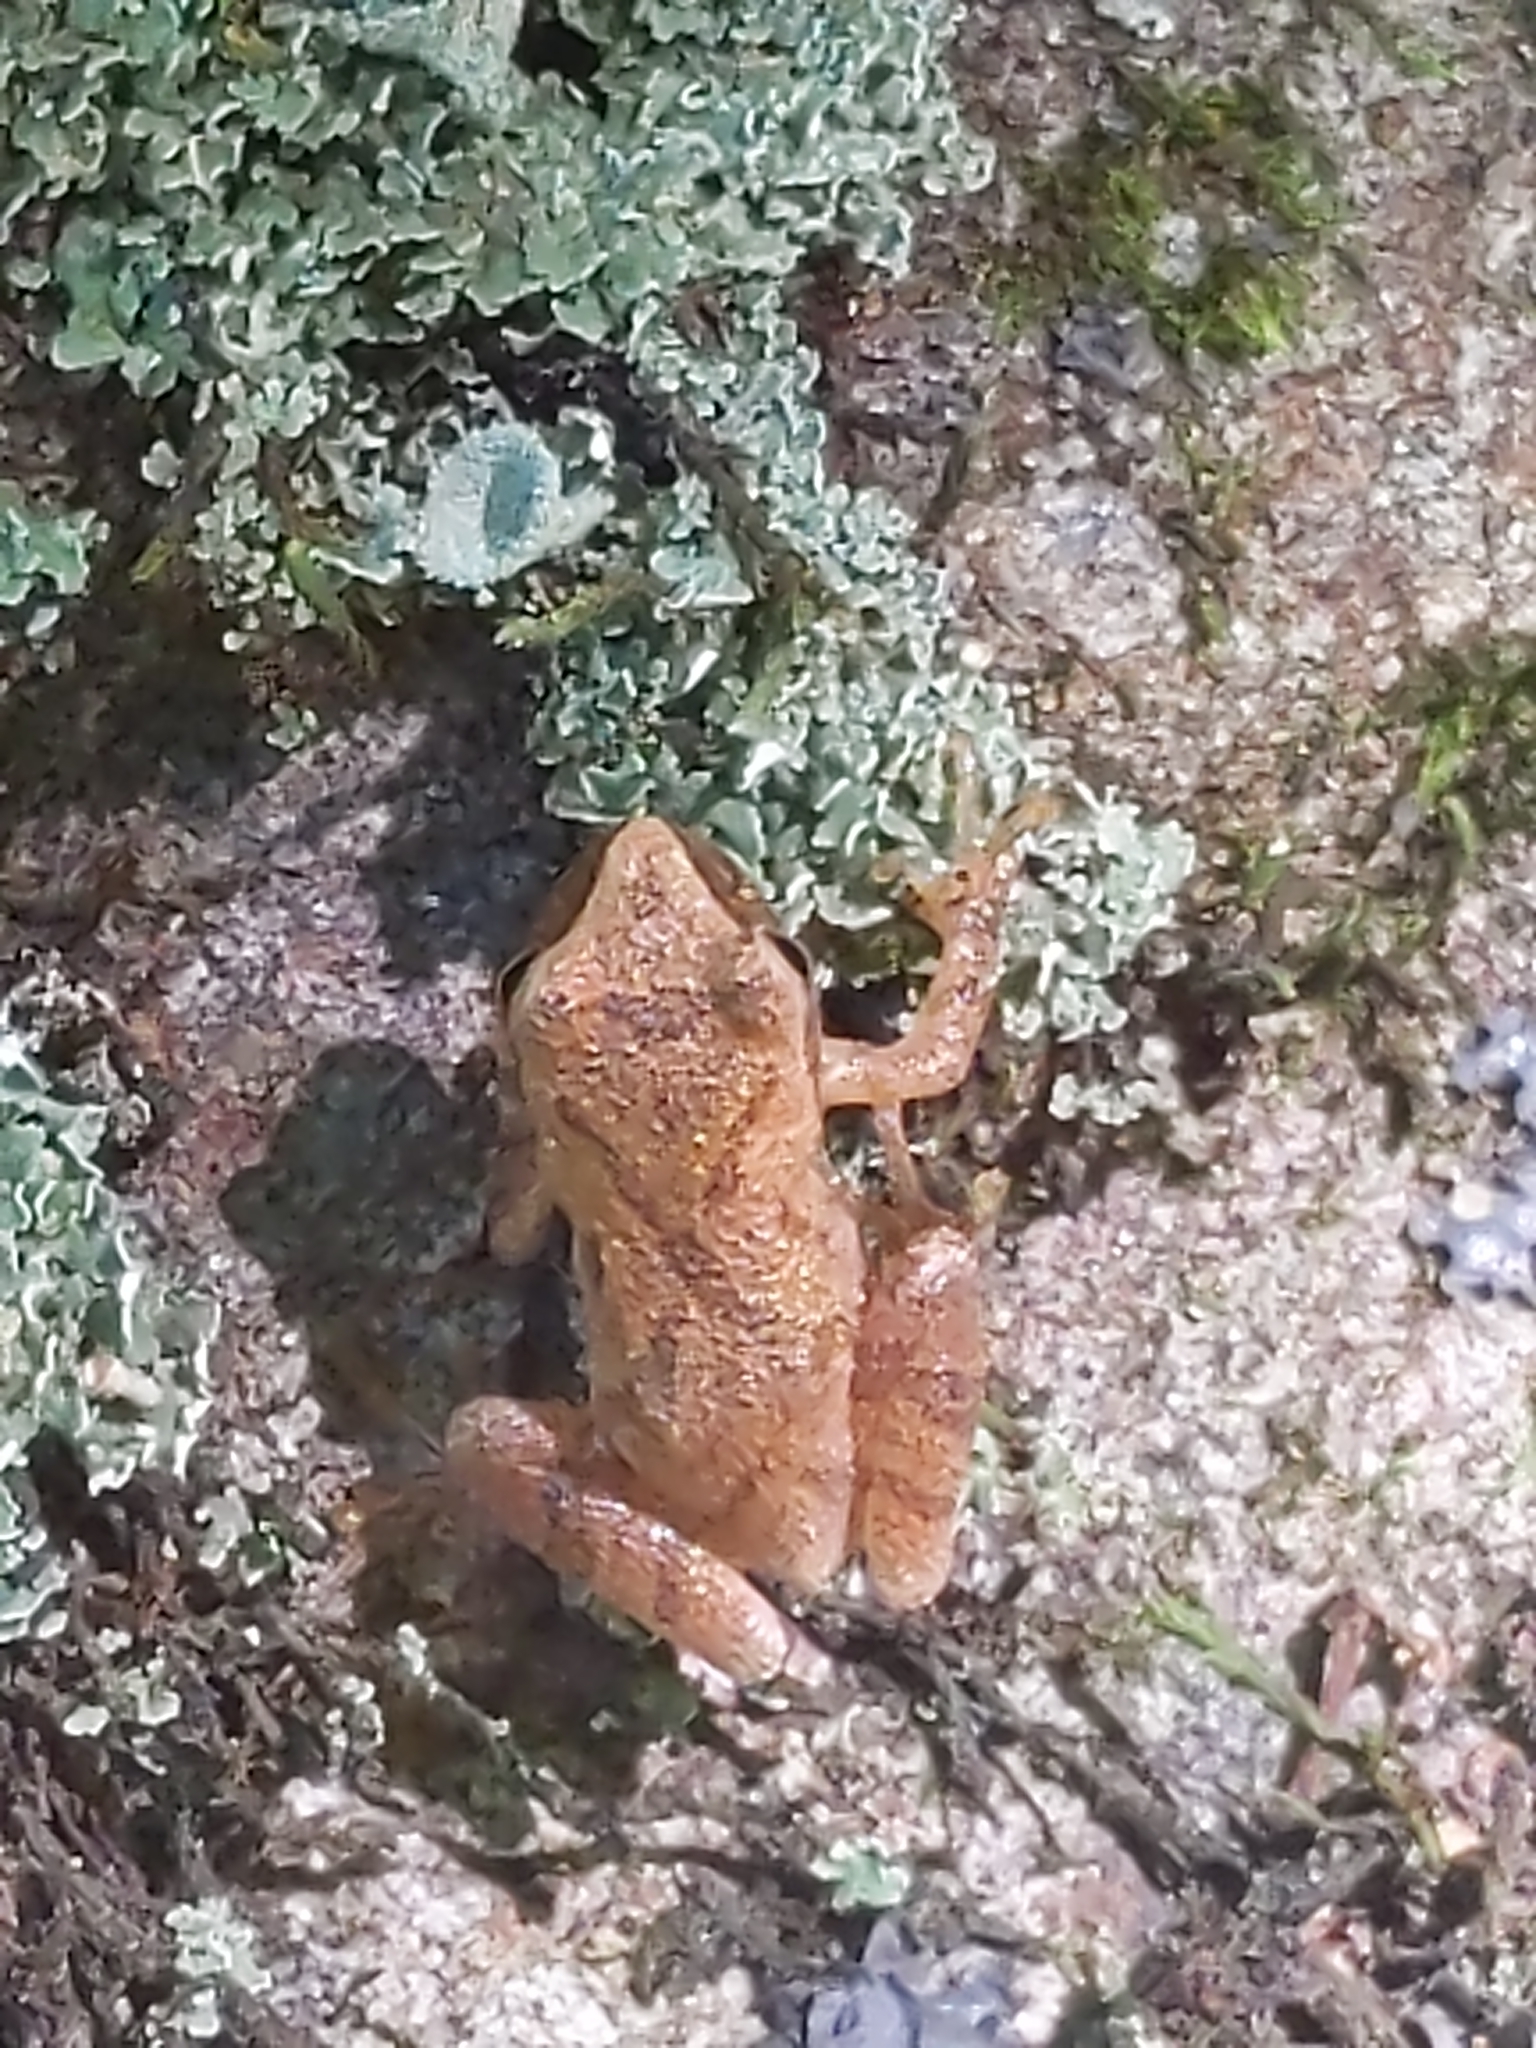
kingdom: Animalia
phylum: Chordata
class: Amphibia
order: Anura
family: Hylidae
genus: Pseudacris
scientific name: Pseudacris crucifer
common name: Spring peeper
